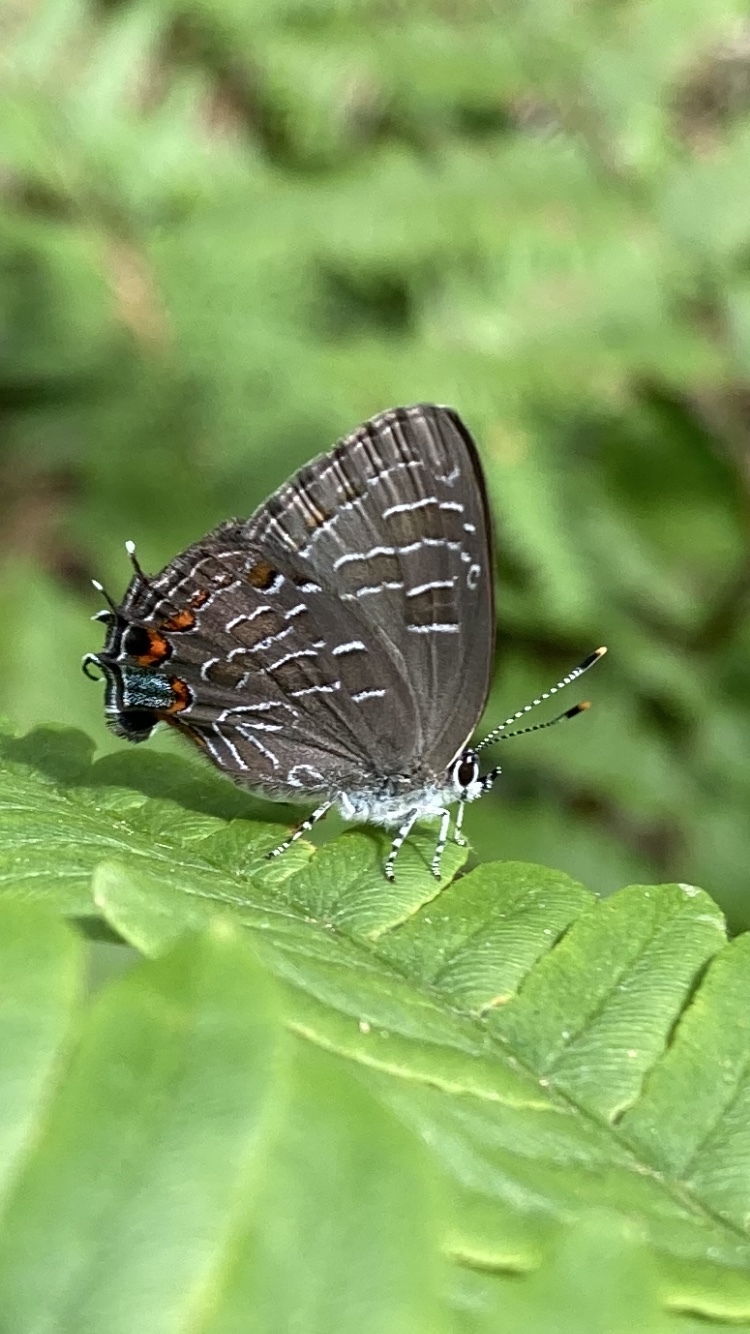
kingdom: Animalia
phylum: Arthropoda
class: Insecta
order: Lepidoptera
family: Lycaenidae
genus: Satyrium
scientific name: Satyrium liparops
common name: Striped hairstreak
